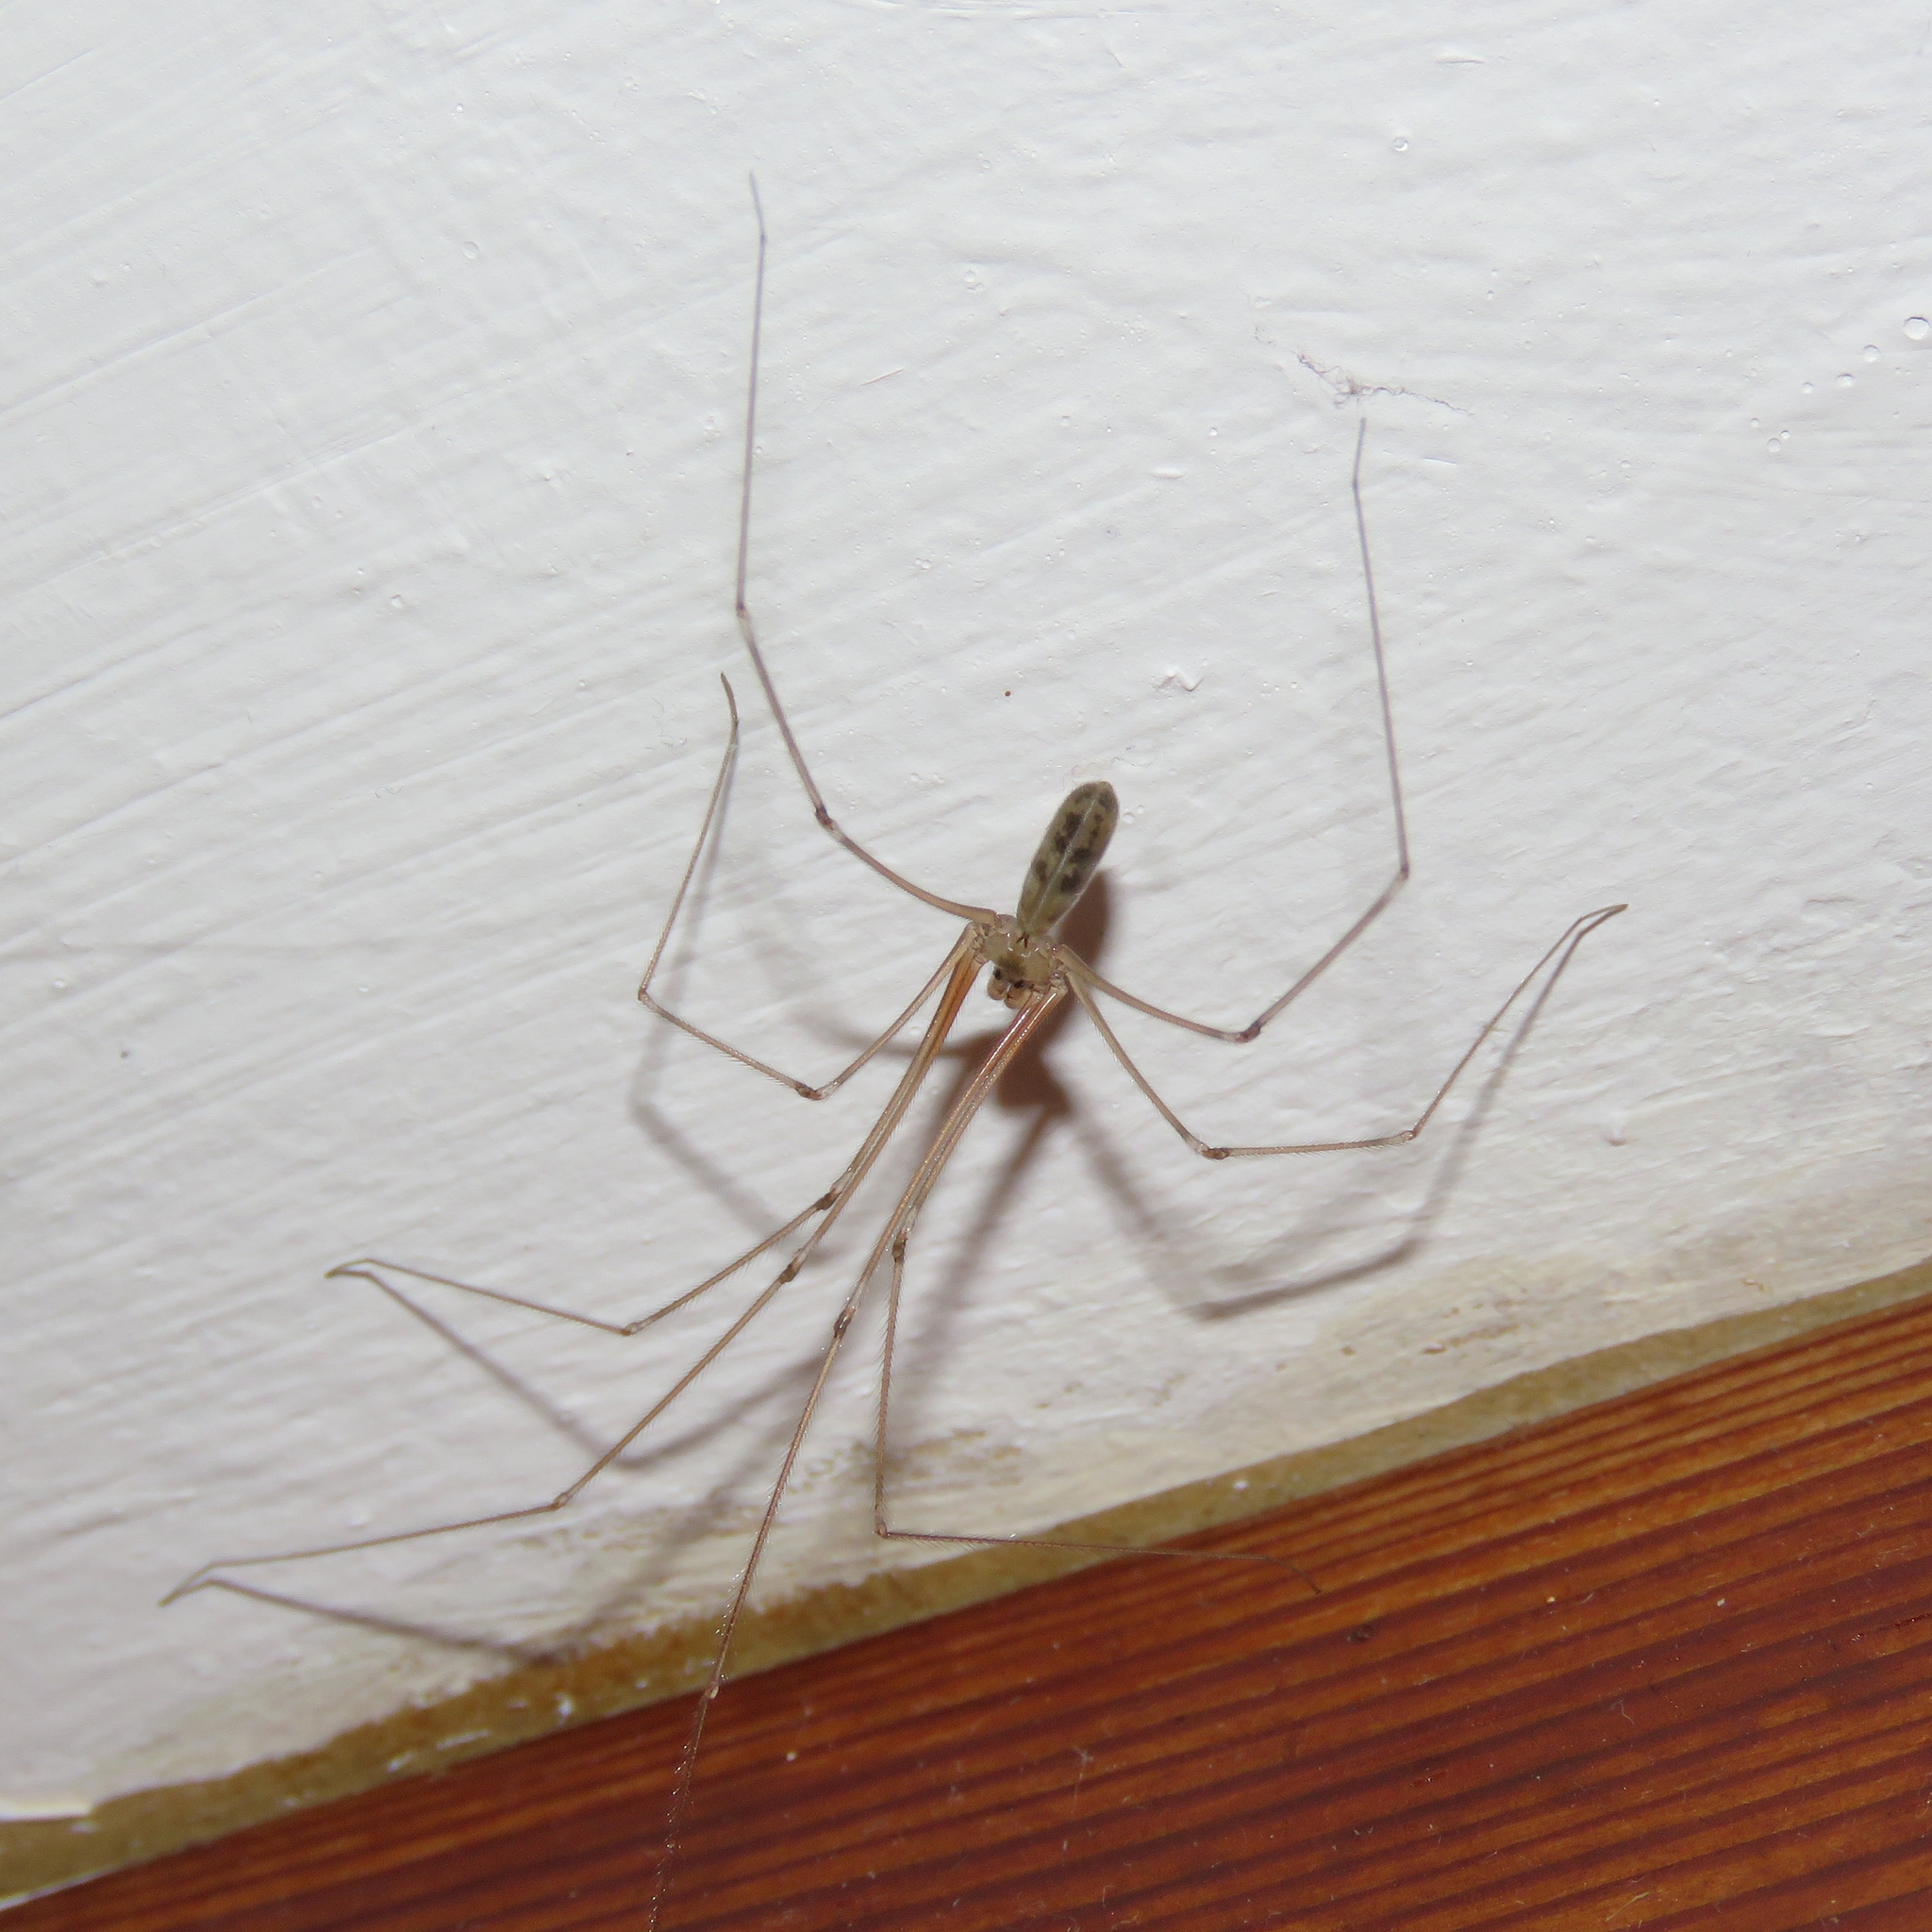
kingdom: Animalia
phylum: Arthropoda
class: Arachnida
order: Araneae
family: Pholcidae
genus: Pholcus
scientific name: Pholcus phalangioides
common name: Longbodied cellar spider
